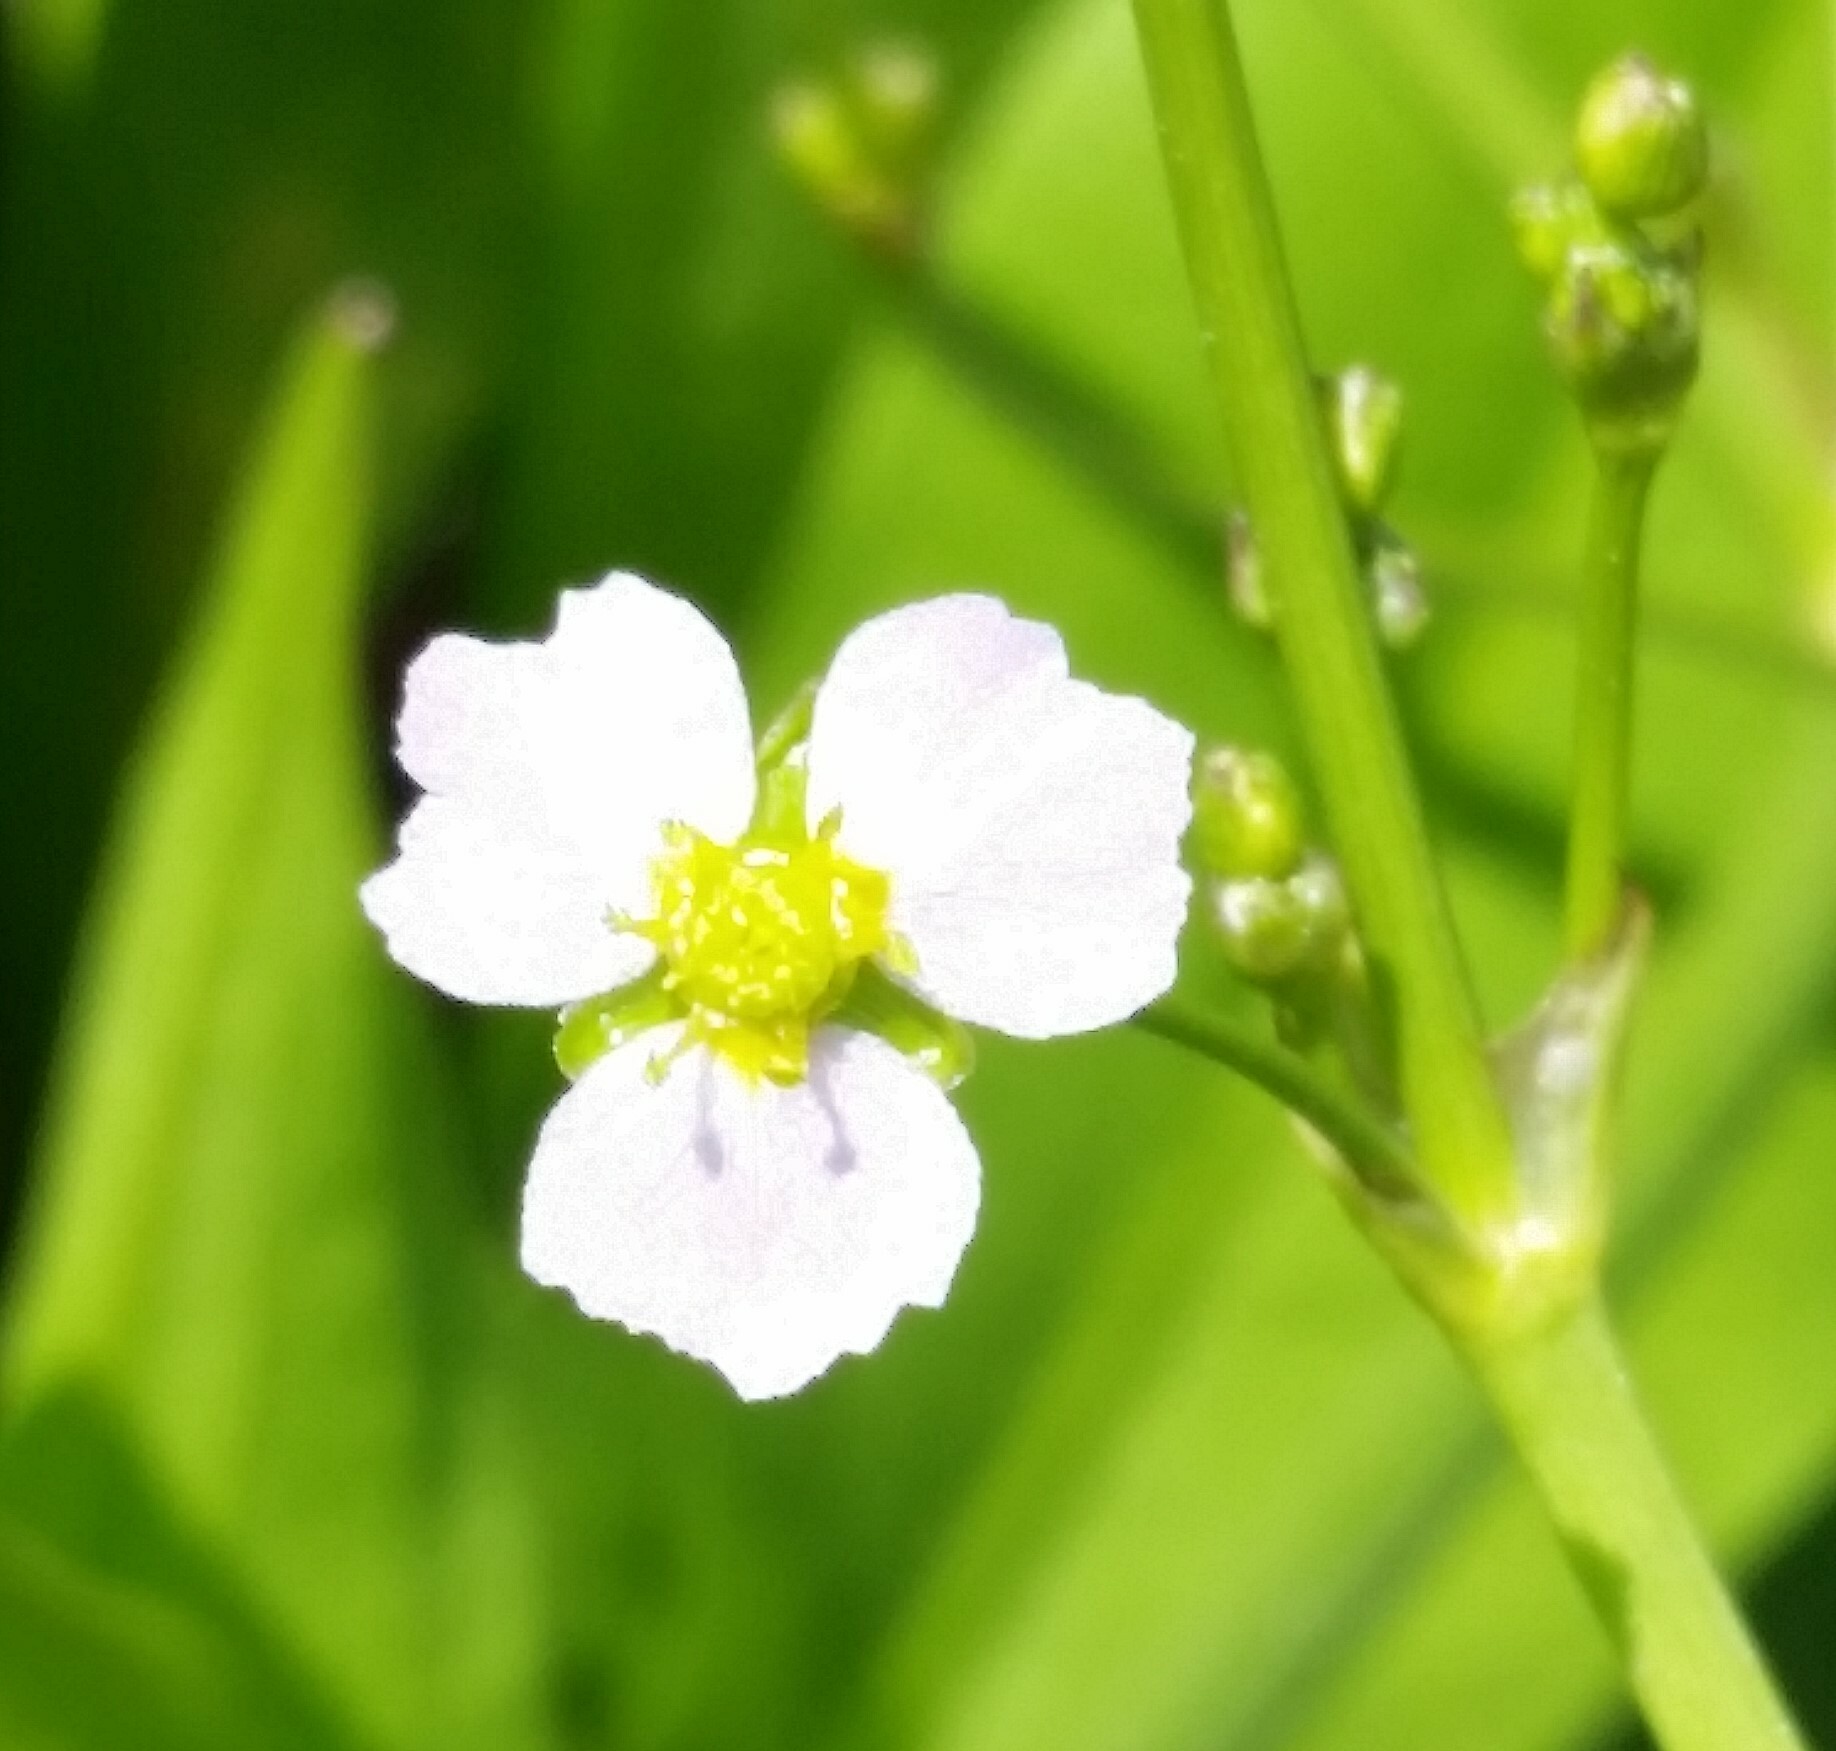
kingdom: Plantae
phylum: Tracheophyta
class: Liliopsida
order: Alismatales
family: Alismataceae
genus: Alisma
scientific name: Alisma lanceolatum
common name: Narrow-leaved water-plantain
